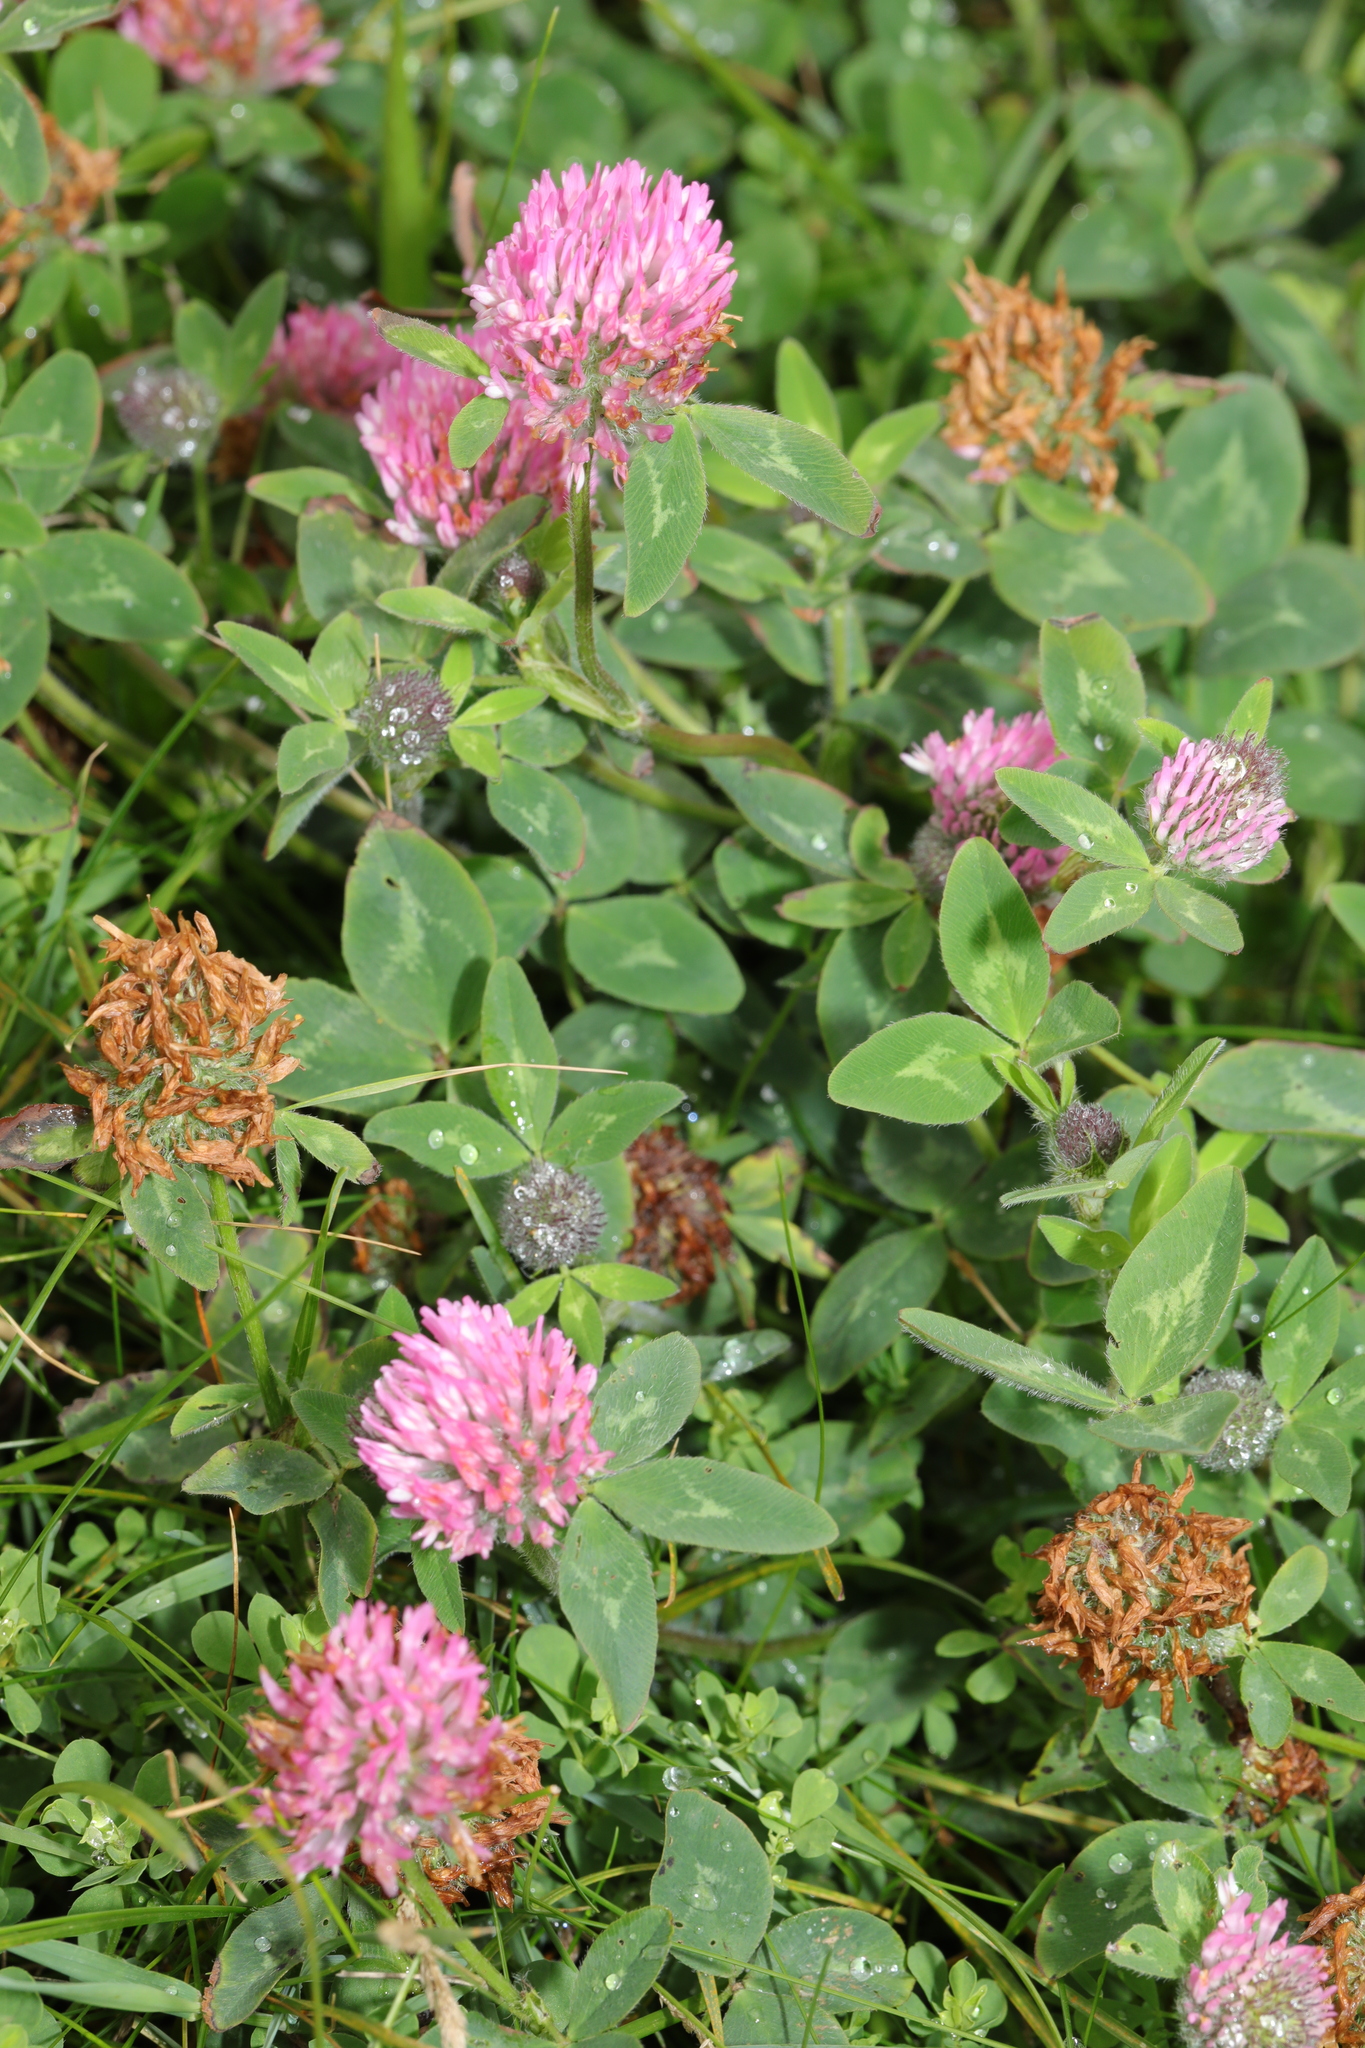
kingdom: Plantae
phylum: Tracheophyta
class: Magnoliopsida
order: Fabales
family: Fabaceae
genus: Trifolium
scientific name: Trifolium pratense
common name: Red clover
